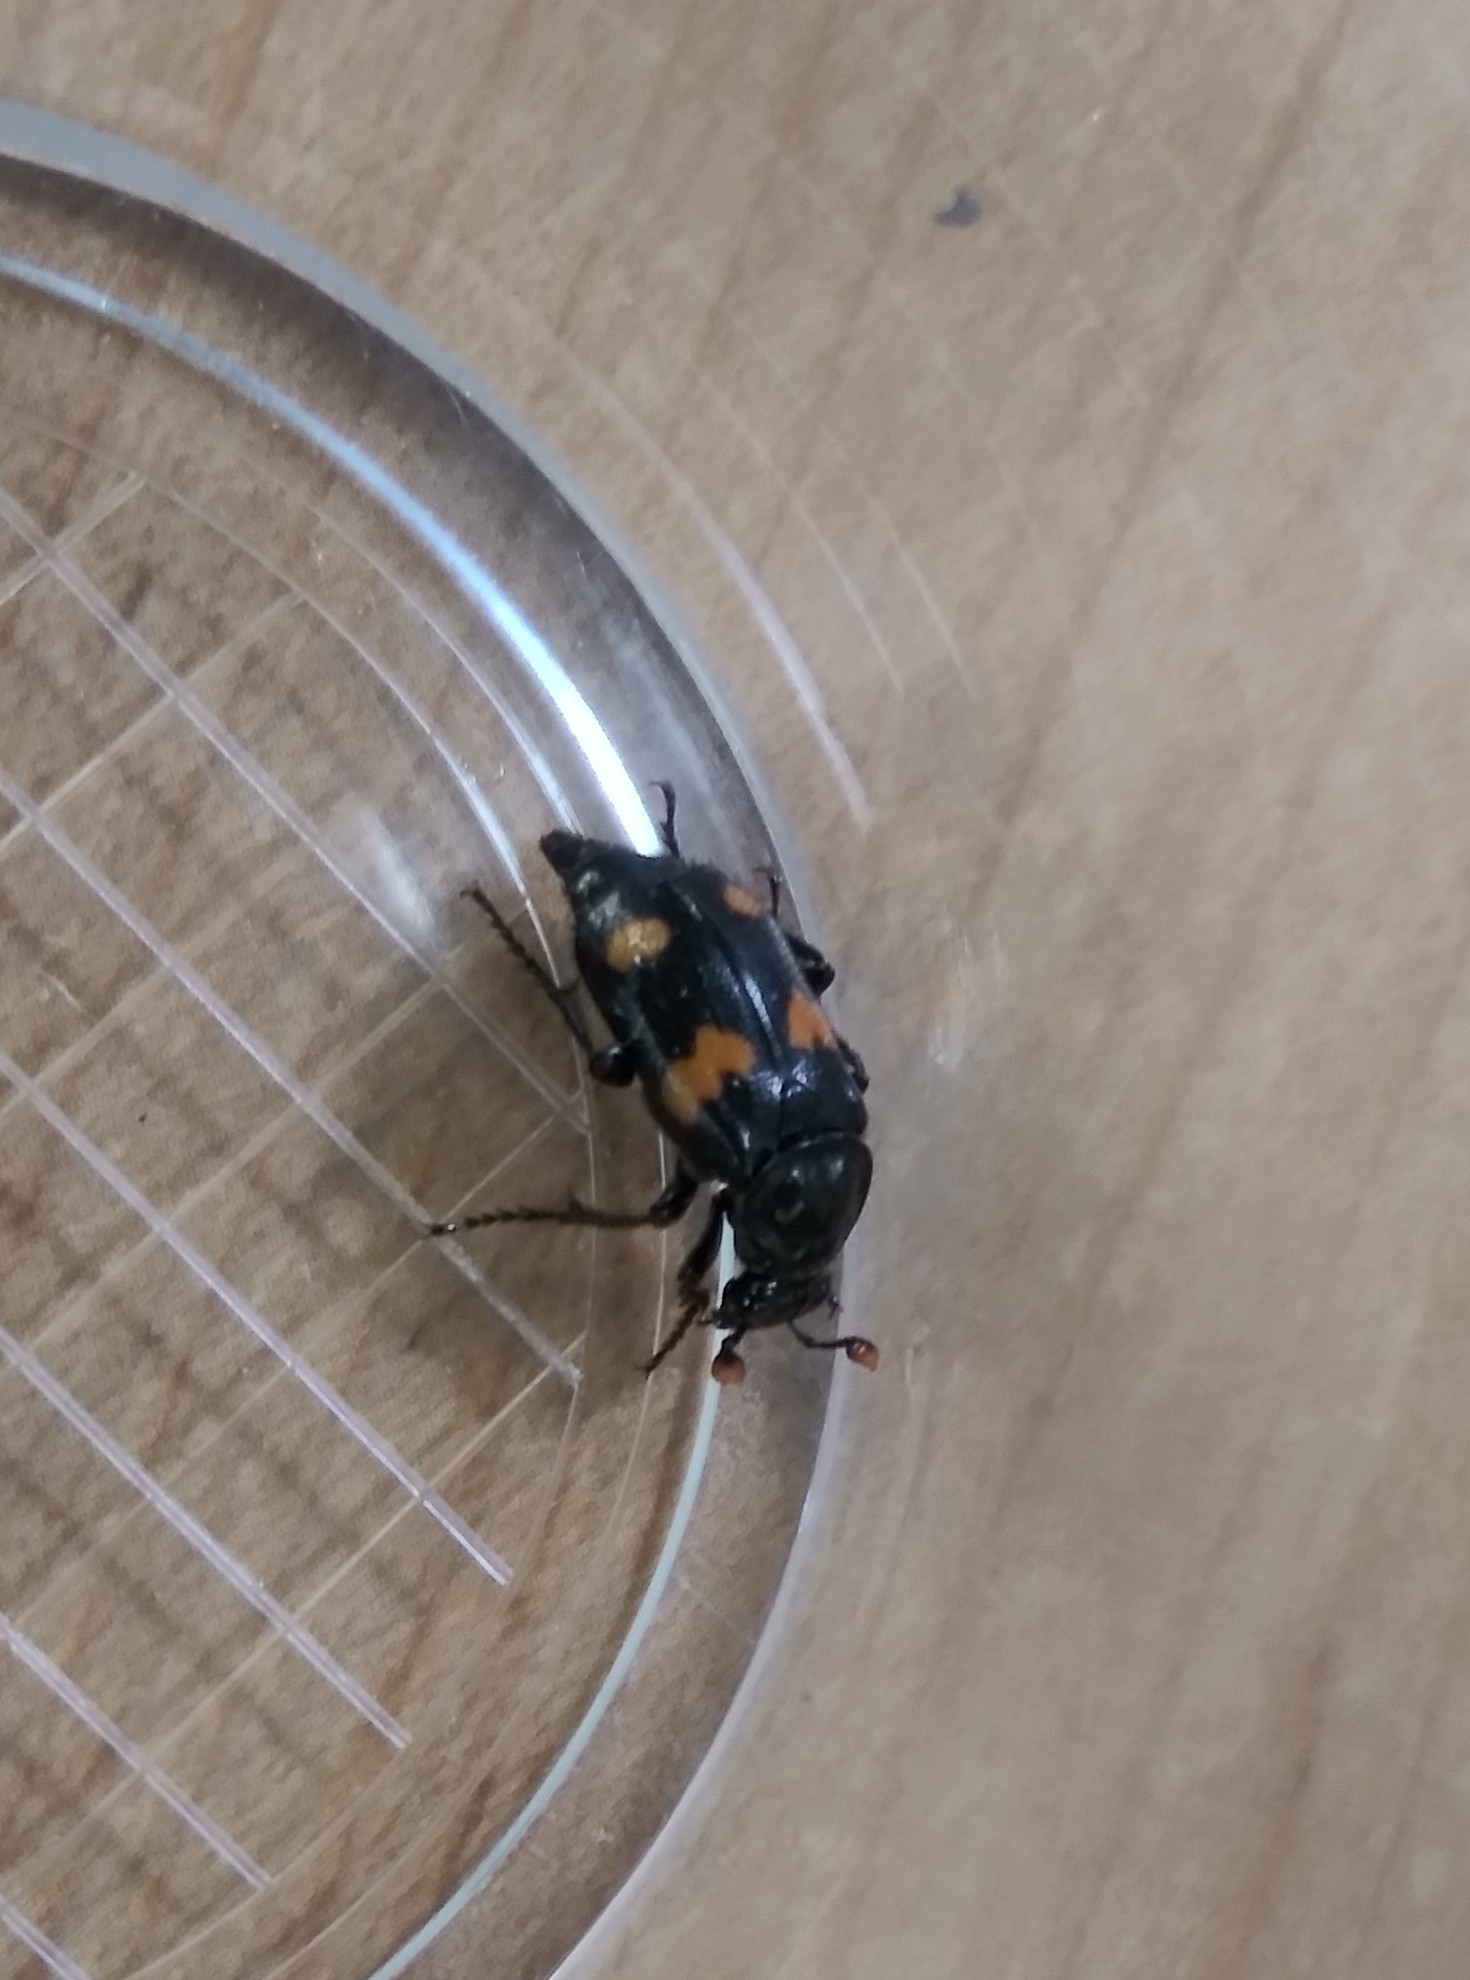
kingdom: Animalia
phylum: Arthropoda
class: Insecta
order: Coleoptera
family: Staphylinidae
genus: Nicrophorus
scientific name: Nicrophorus orbicollis
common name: Roundneck sexton beetle
